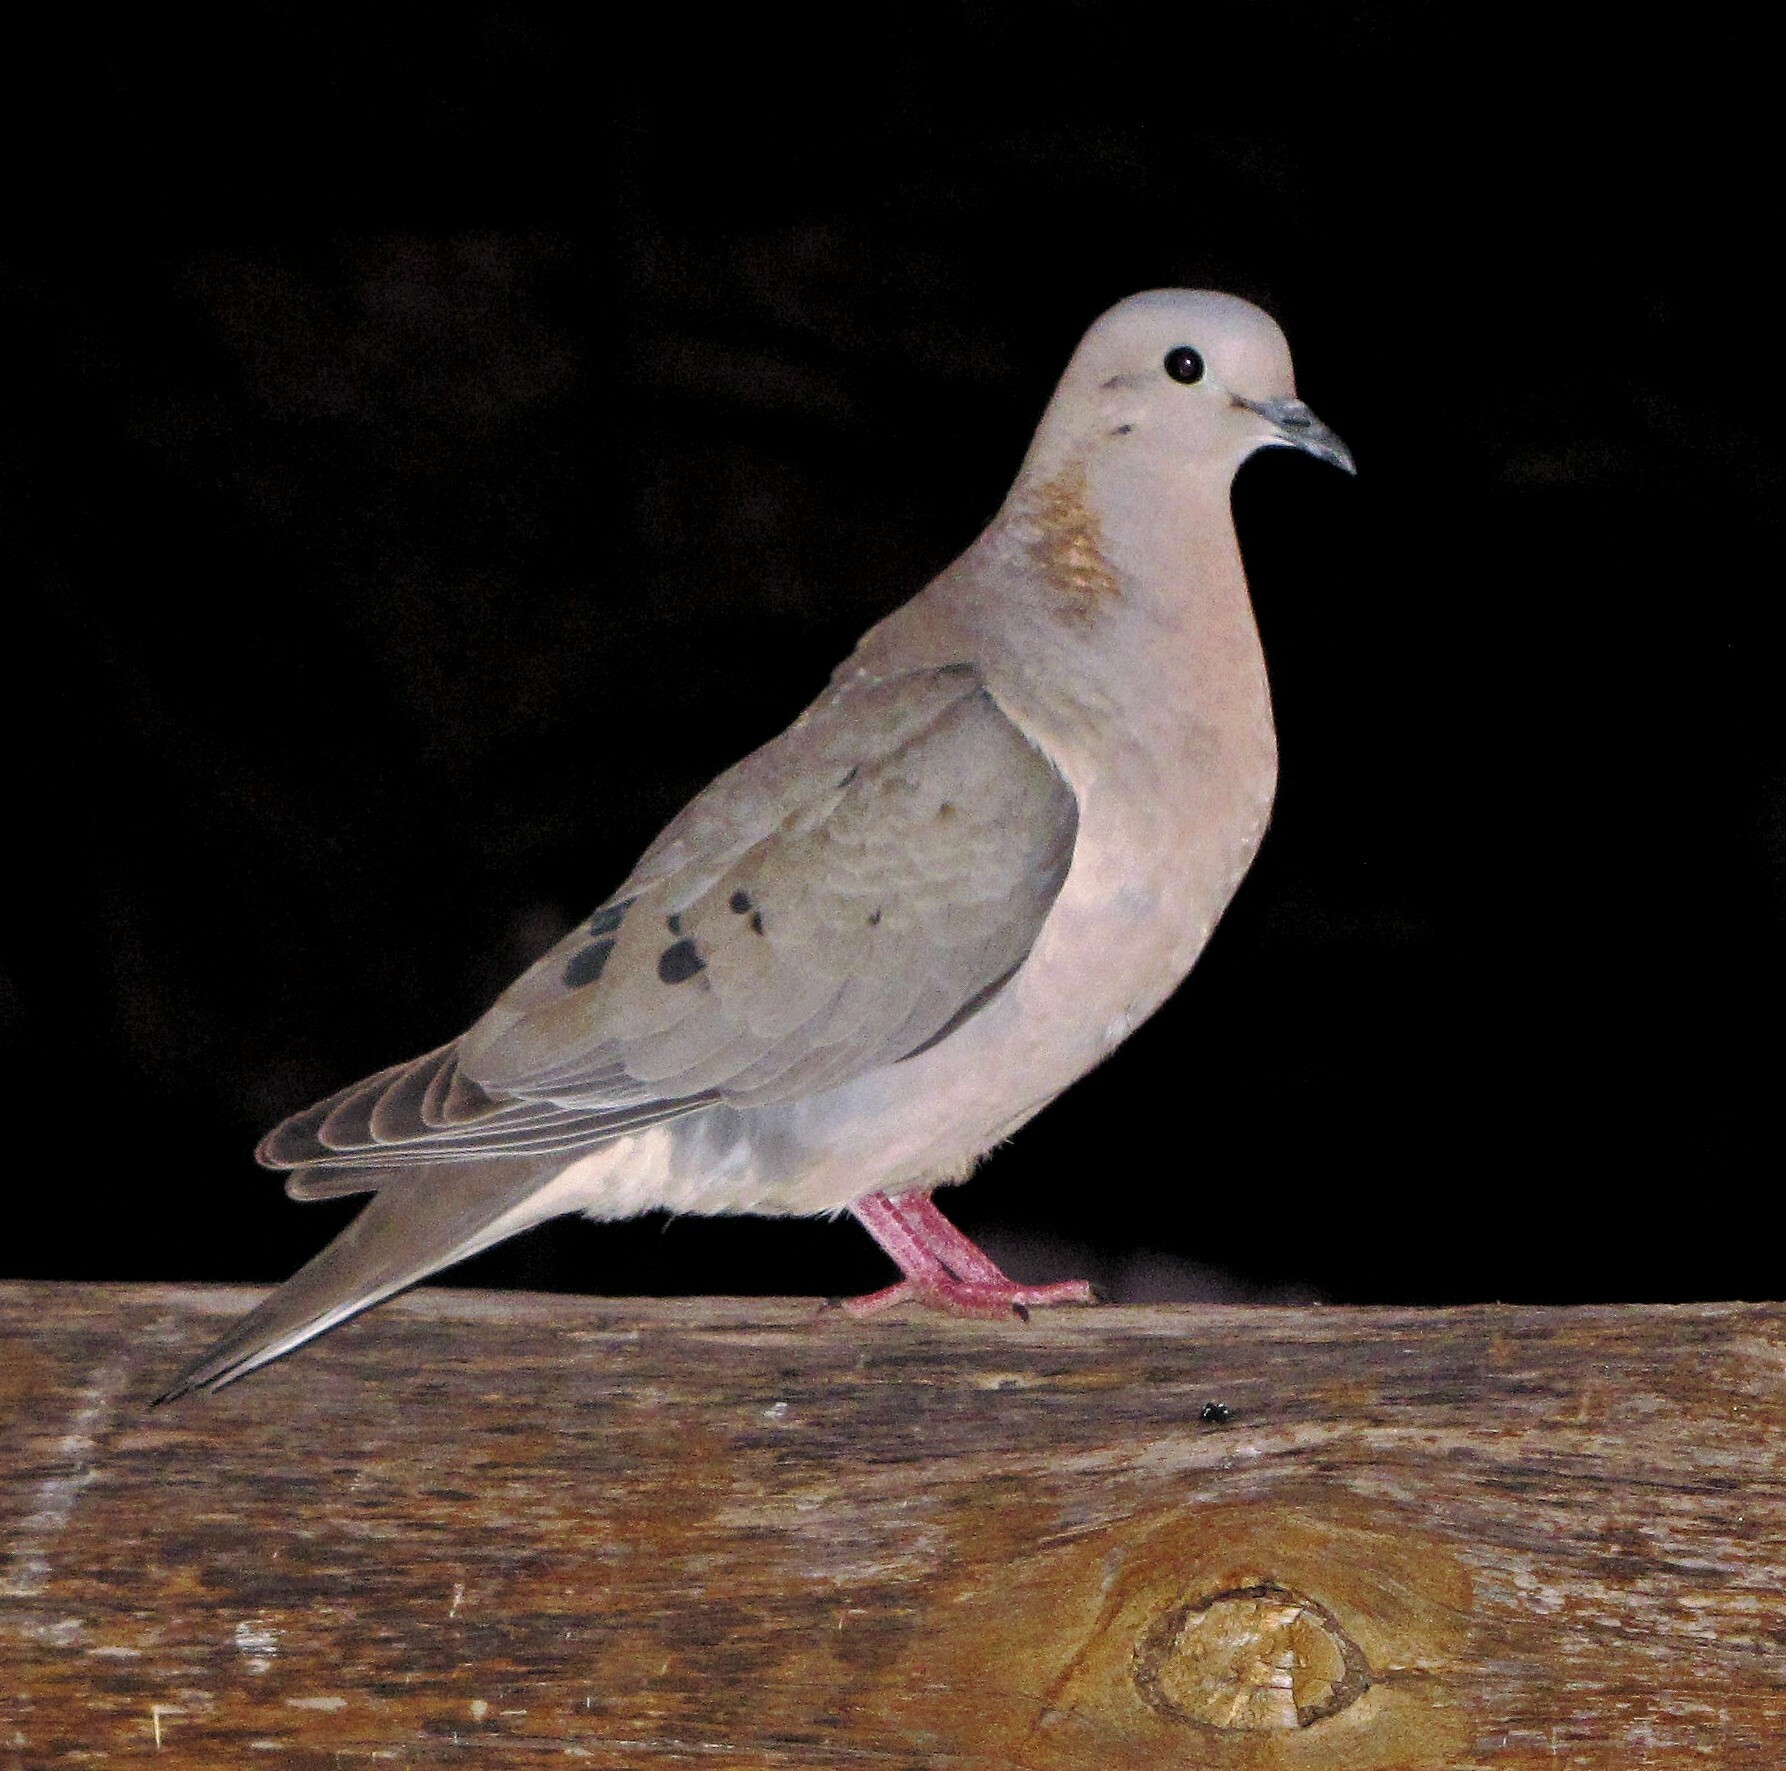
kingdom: Animalia
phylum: Chordata
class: Aves
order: Columbiformes
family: Columbidae
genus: Zenaida
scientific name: Zenaida auriculata
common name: Eared dove
